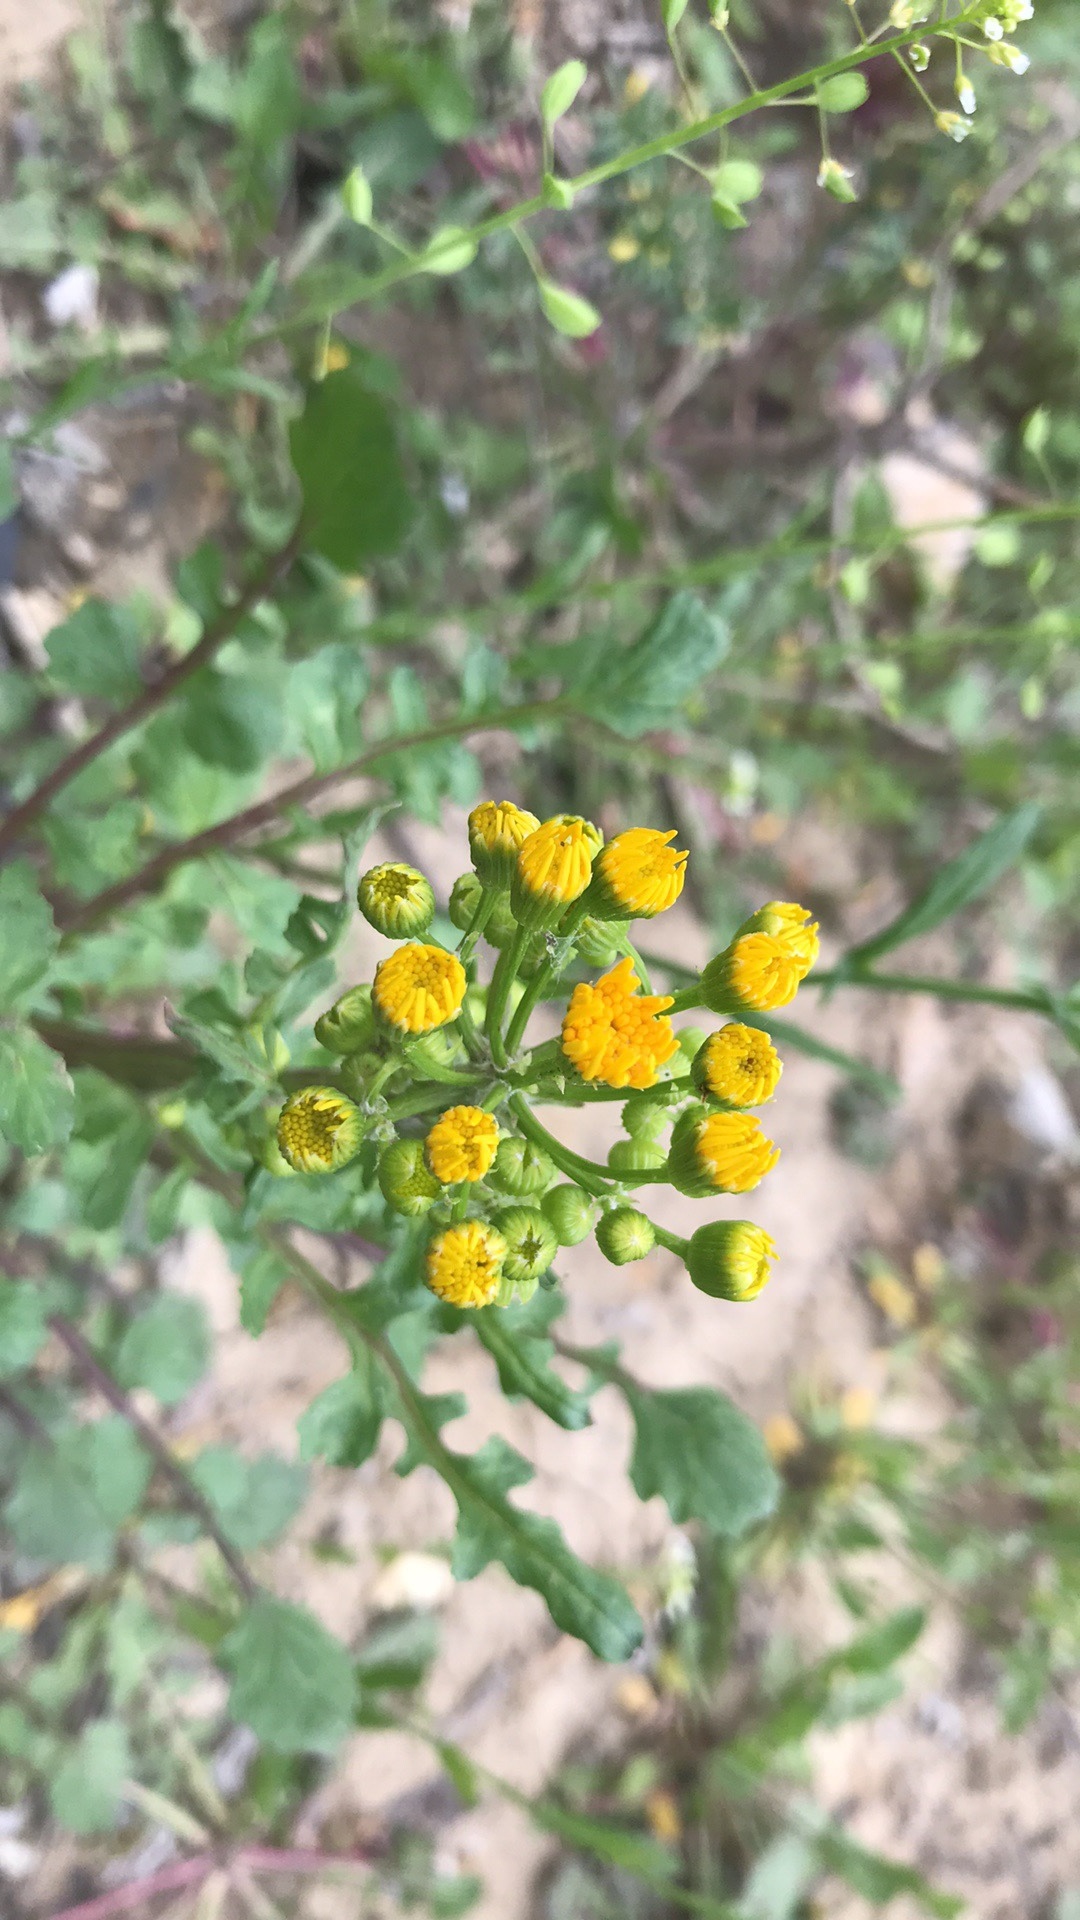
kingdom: Plantae
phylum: Tracheophyta
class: Magnoliopsida
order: Asterales
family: Asteraceae
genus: Packera
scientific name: Packera glabella
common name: Butterweed
